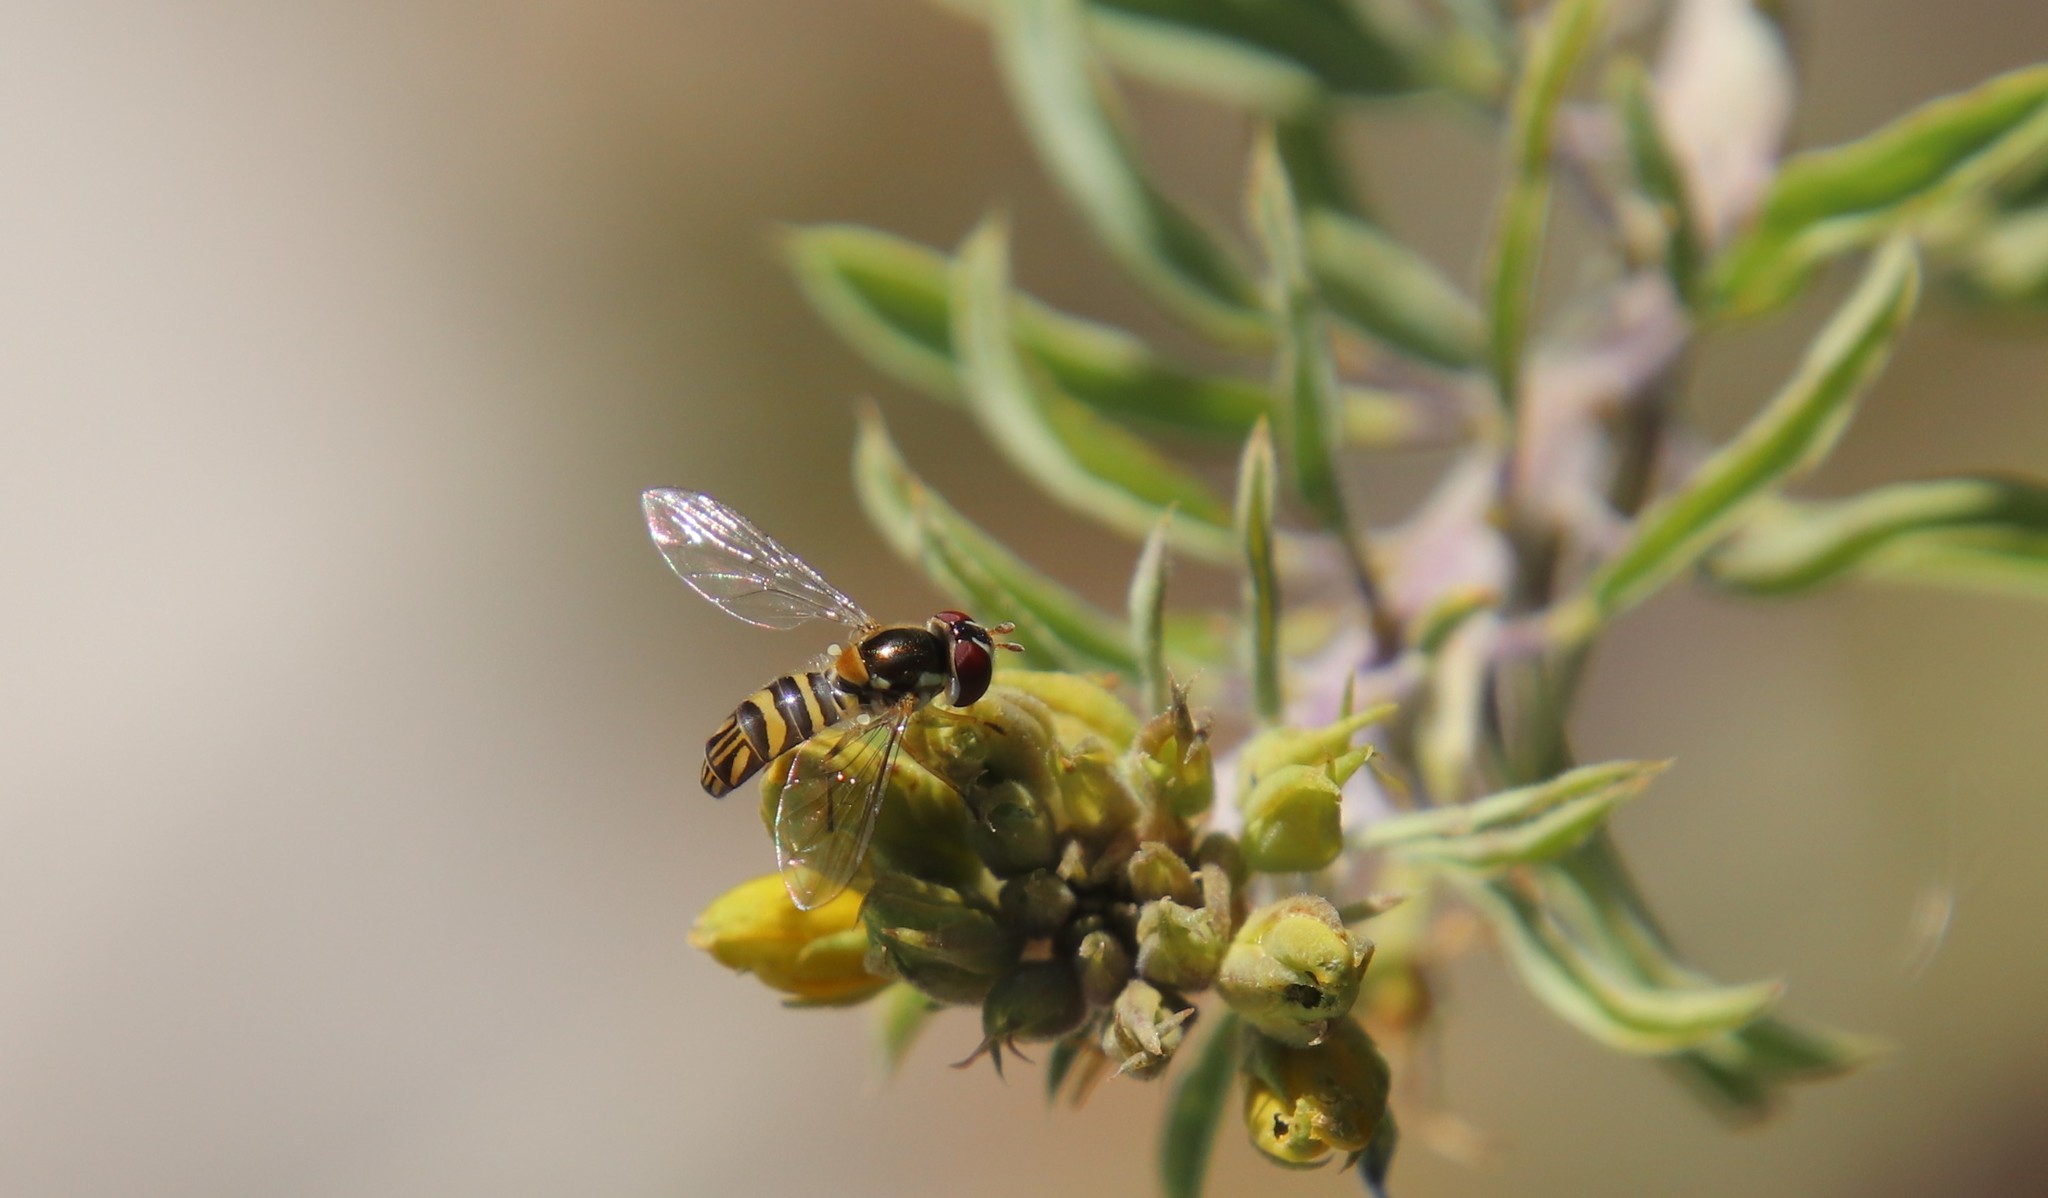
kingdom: Animalia
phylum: Arthropoda
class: Insecta
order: Diptera
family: Syrphidae
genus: Allograpta
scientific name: Allograpta obliqua
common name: Common oblique syrphid
